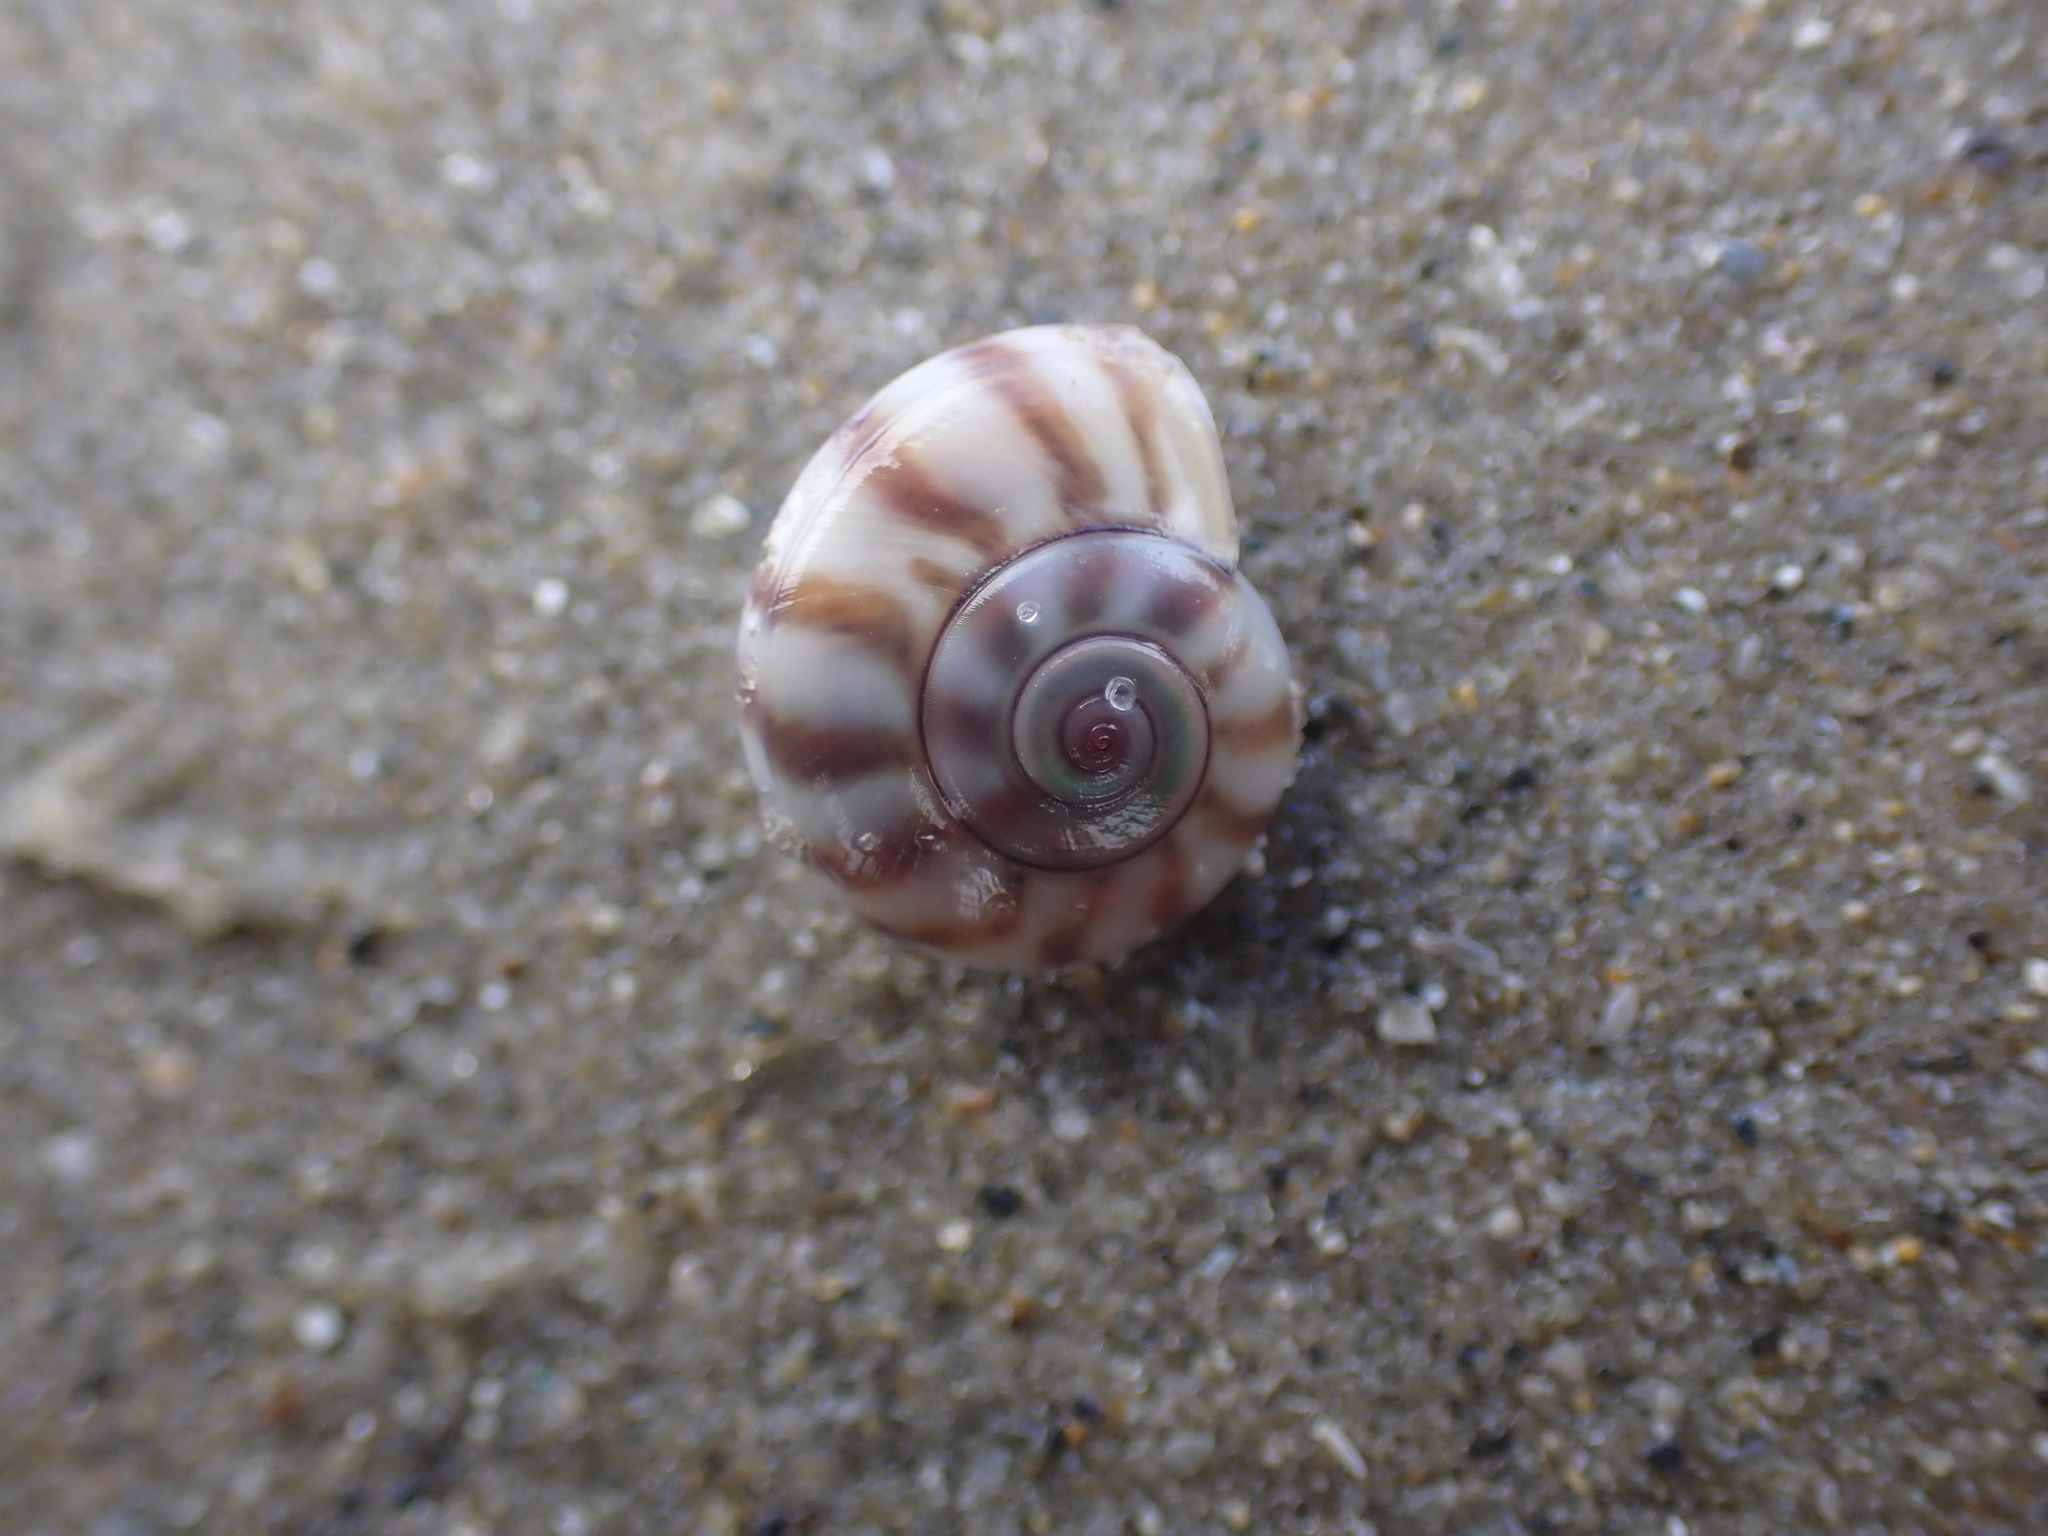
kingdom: Animalia
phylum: Mollusca
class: Gastropoda
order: Trochida
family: Trochidae
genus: Zethalia
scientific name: Zethalia zelandica
